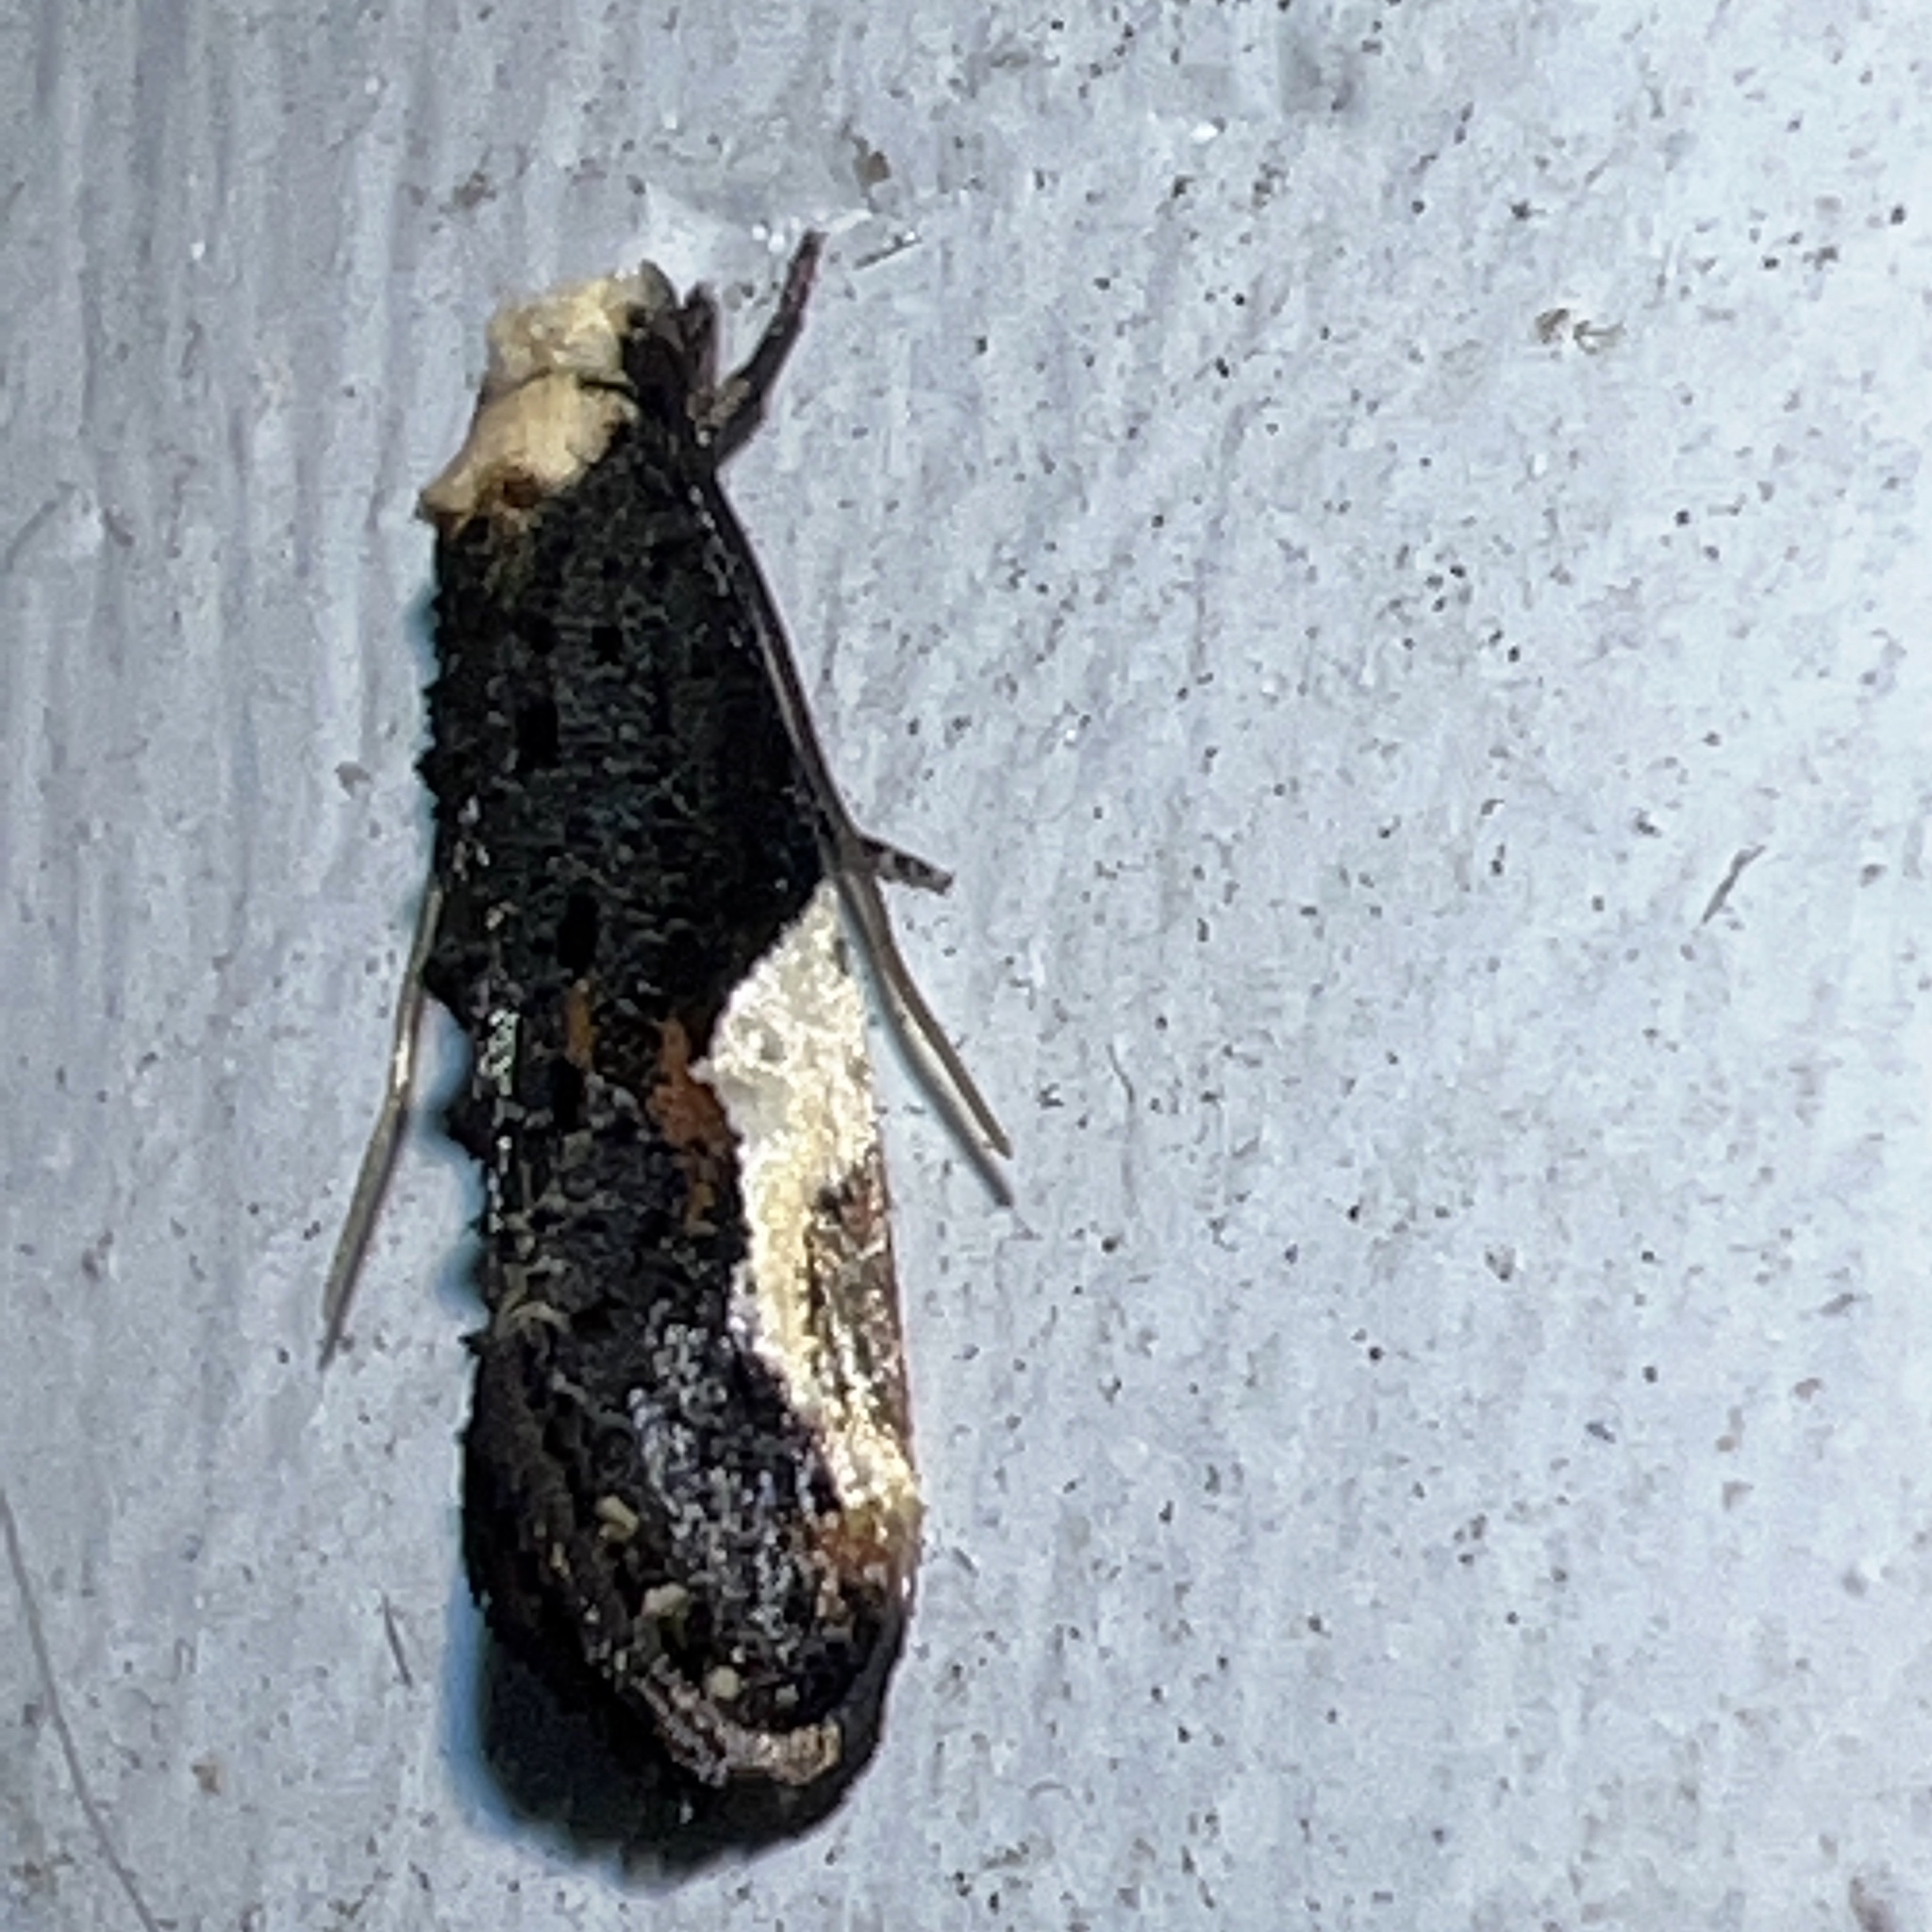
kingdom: Animalia
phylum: Arthropoda
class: Insecta
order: Lepidoptera
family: Tineidae
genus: Monopis
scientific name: Monopis longella
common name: Pavlovski's monopis moth
